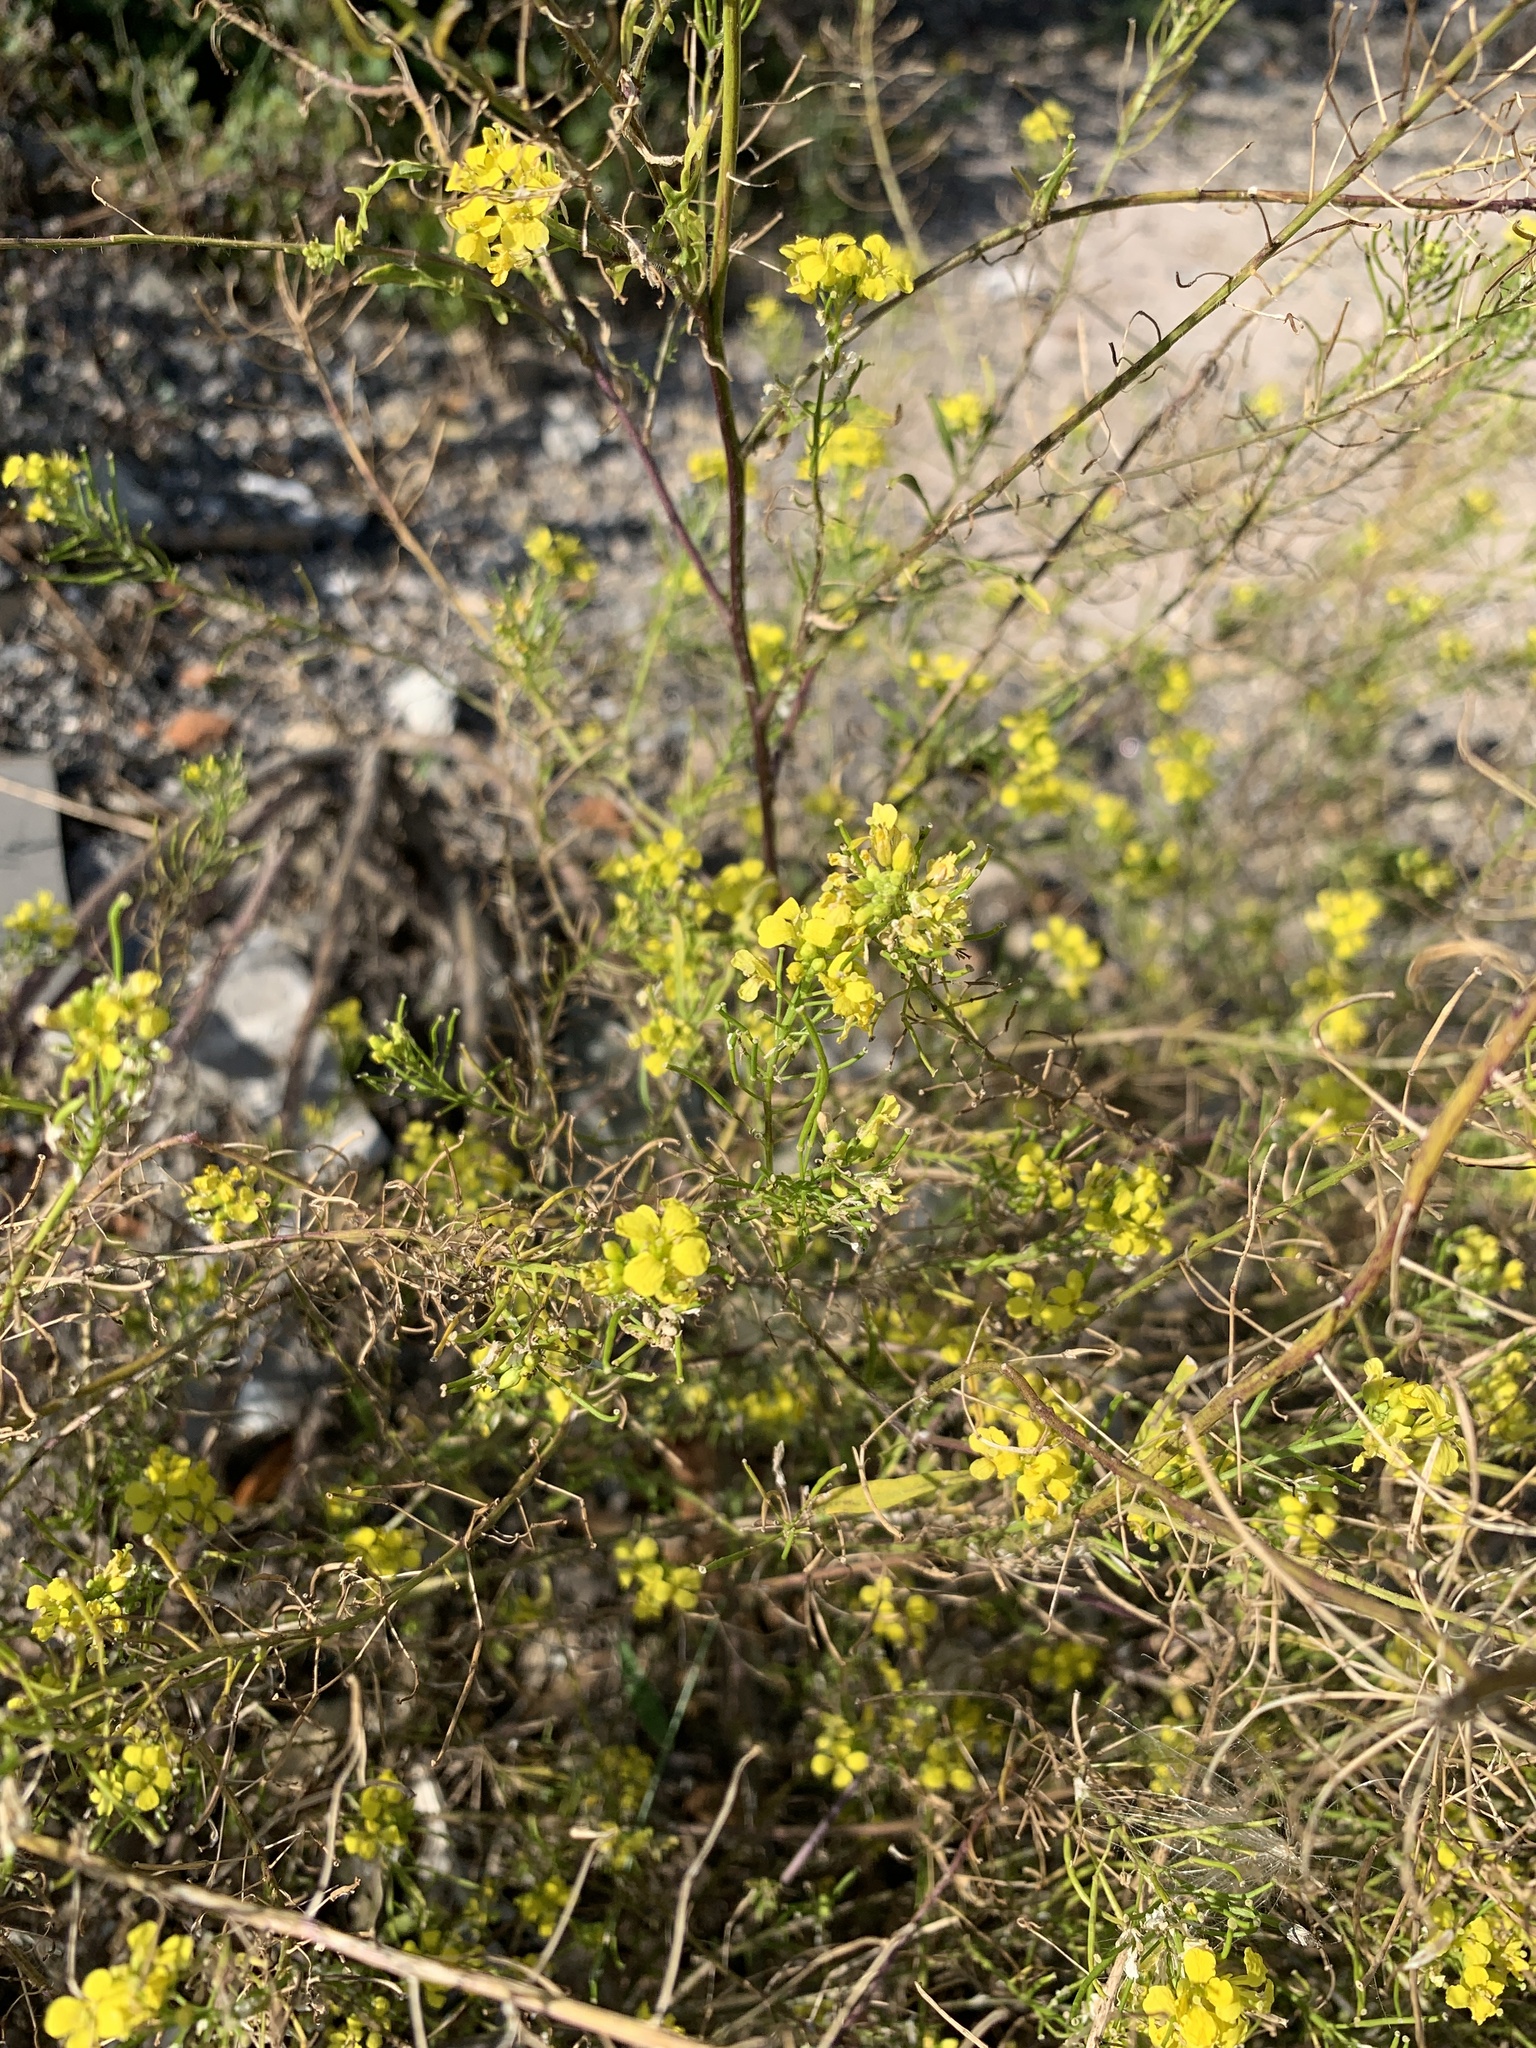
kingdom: Plantae
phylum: Tracheophyta
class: Magnoliopsida
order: Brassicales
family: Brassicaceae
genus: Sisymbrium
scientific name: Sisymbrium loeselii
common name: False london-rocket
